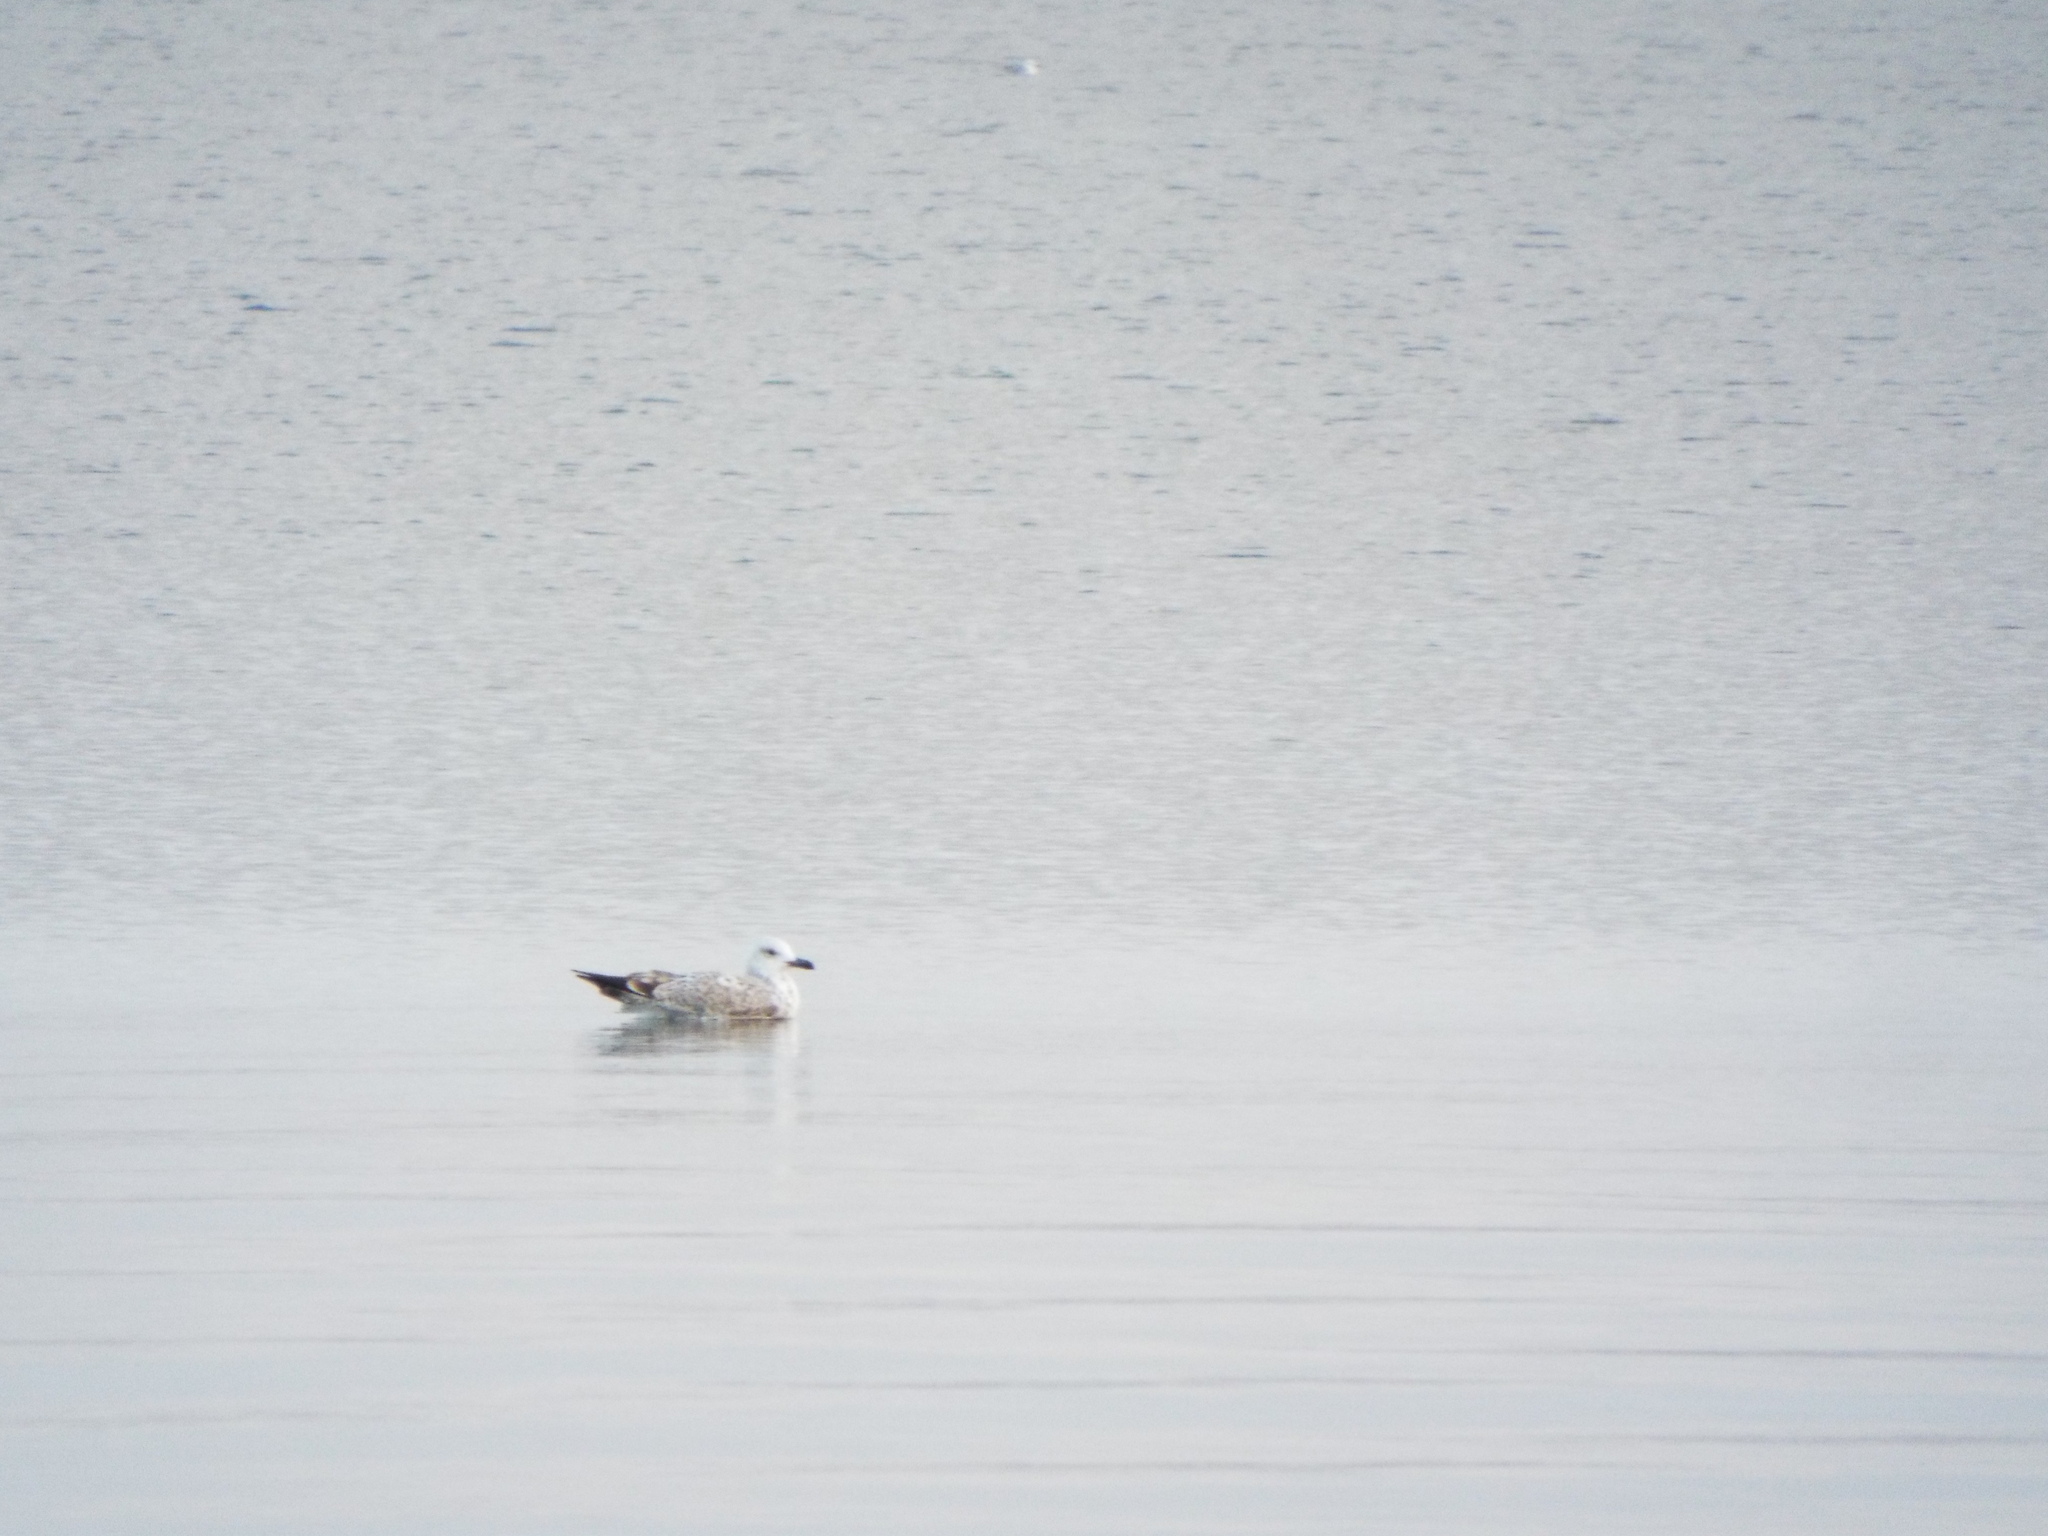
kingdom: Animalia
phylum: Chordata
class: Aves
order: Charadriiformes
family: Laridae
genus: Larus
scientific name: Larus cachinnans
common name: Caspian gull
